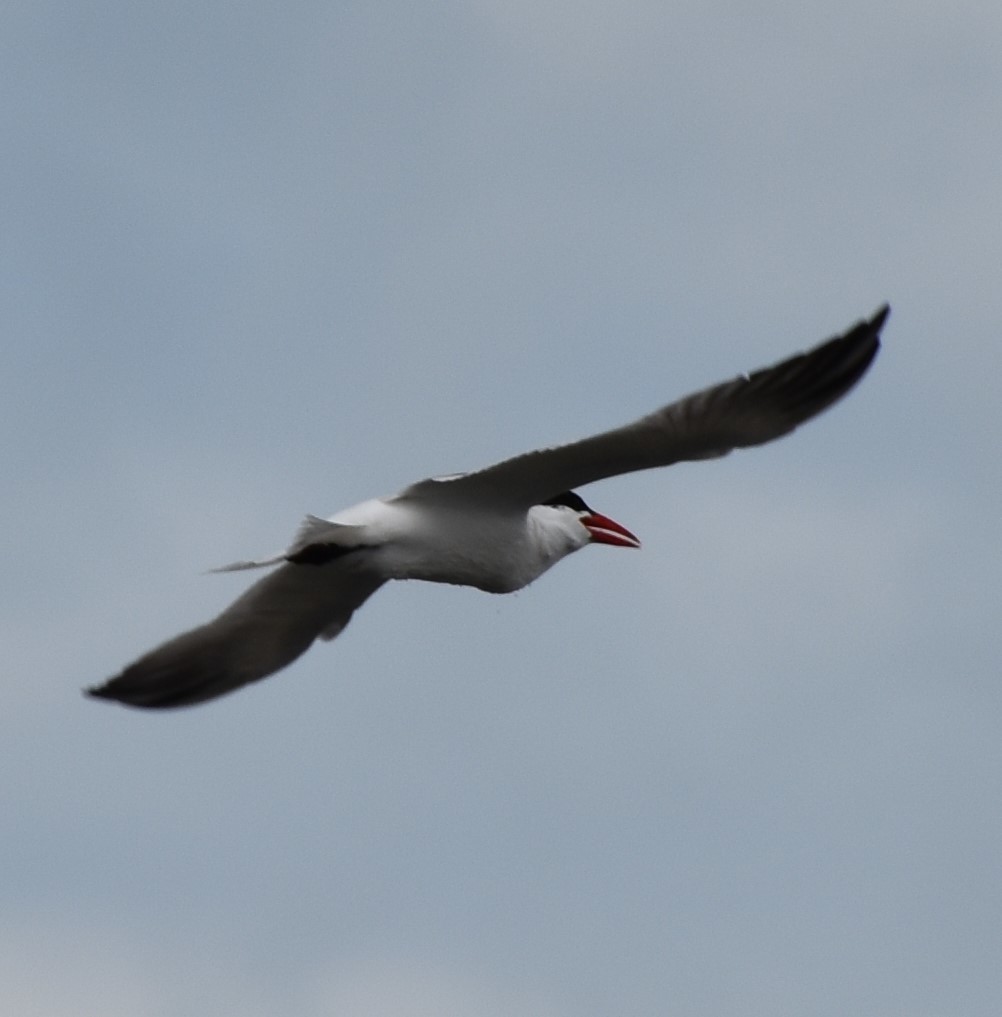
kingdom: Animalia
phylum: Chordata
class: Aves
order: Charadriiformes
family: Laridae
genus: Hydroprogne
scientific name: Hydroprogne caspia
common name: Caspian tern
